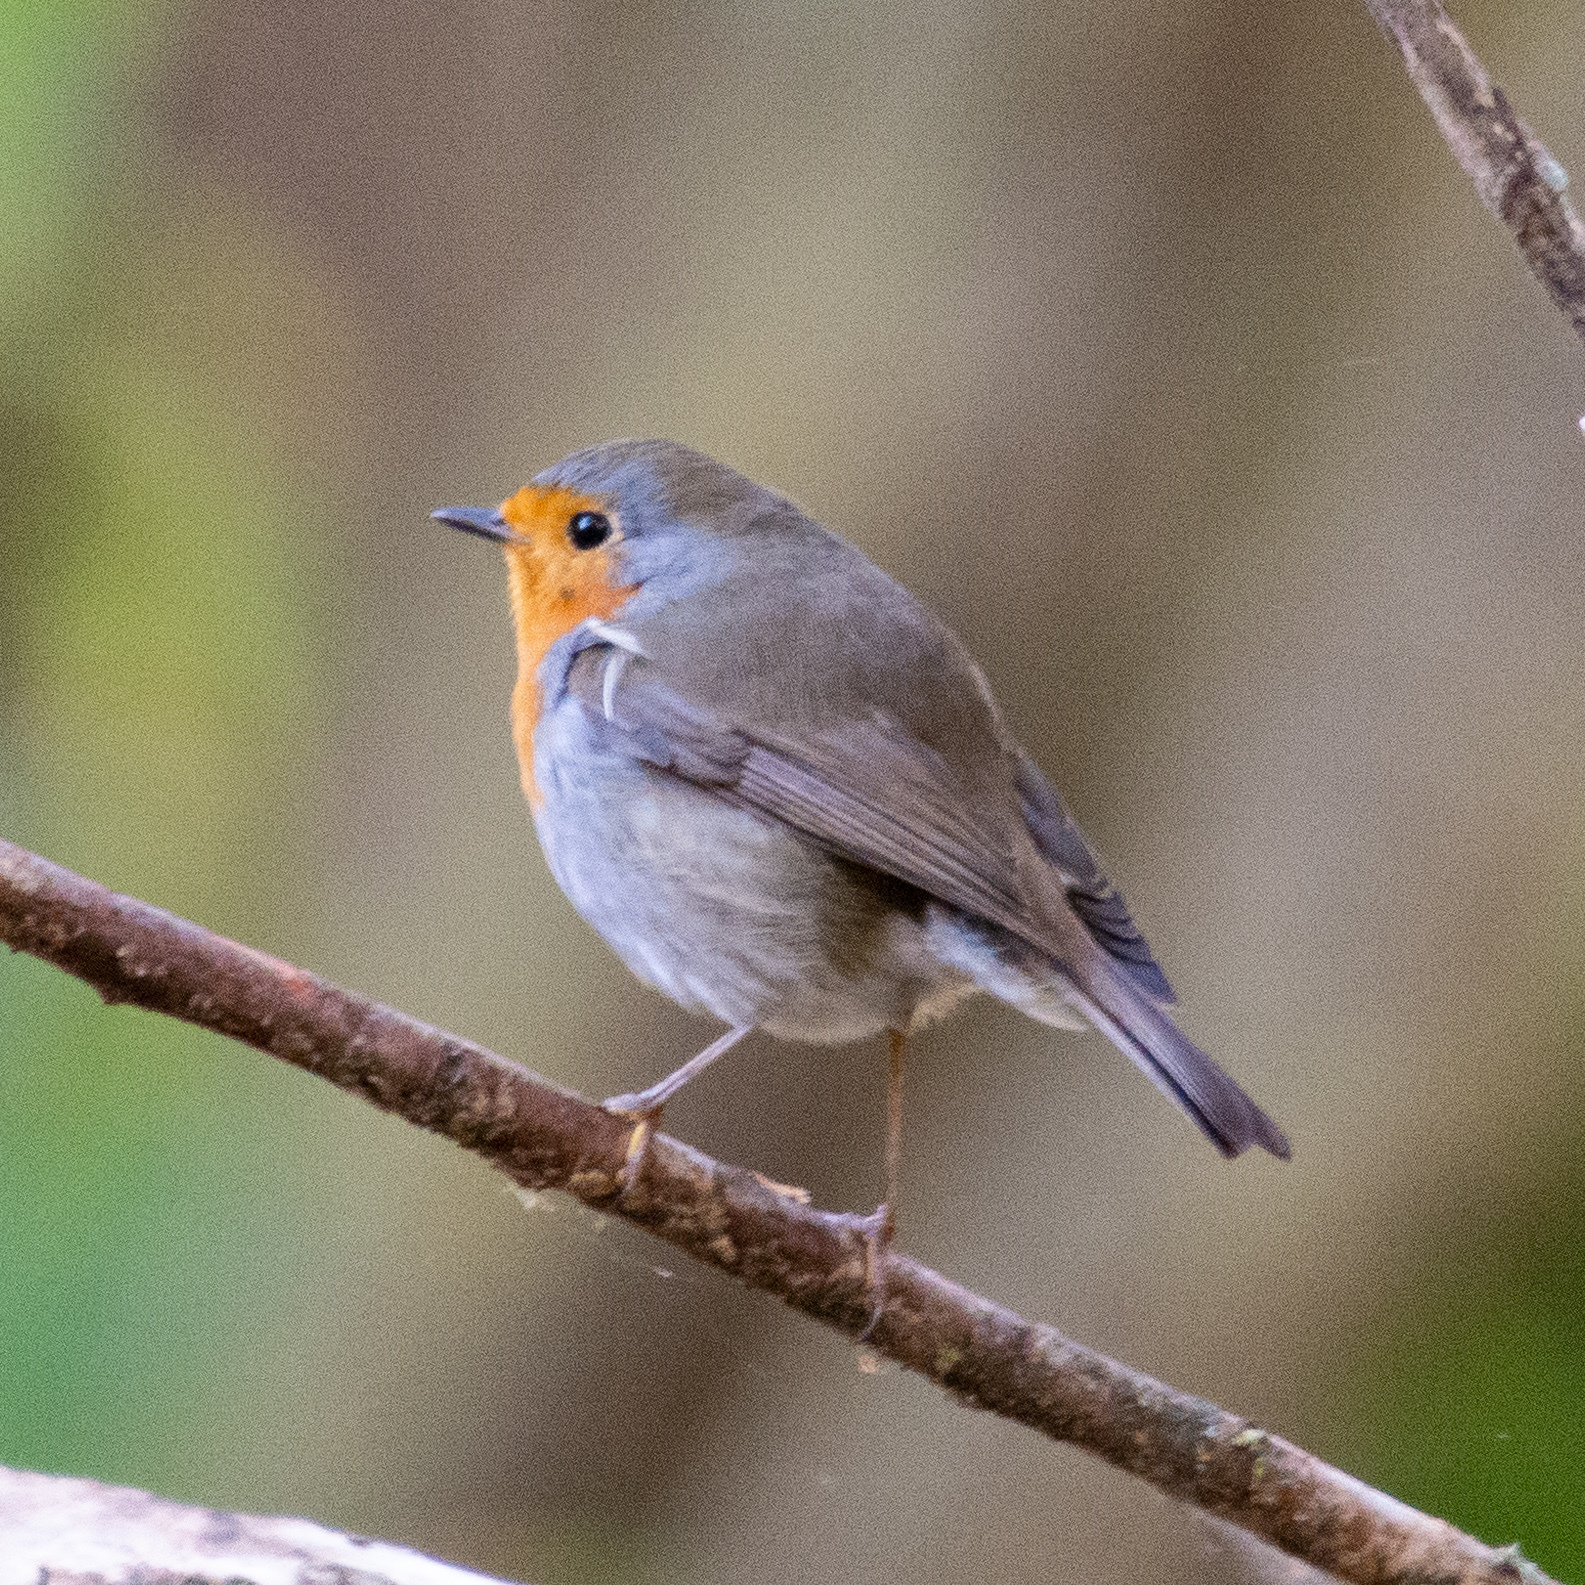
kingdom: Animalia
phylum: Chordata
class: Aves
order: Passeriformes
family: Muscicapidae
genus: Erithacus
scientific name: Erithacus rubecula
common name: European robin
